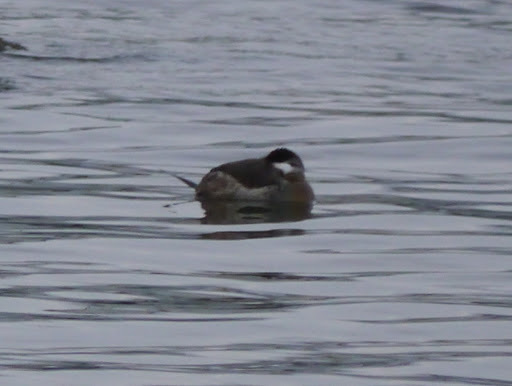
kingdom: Animalia
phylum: Chordata
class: Aves
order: Anseriformes
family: Anatidae
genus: Oxyura
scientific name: Oxyura jamaicensis
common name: Ruddy duck
